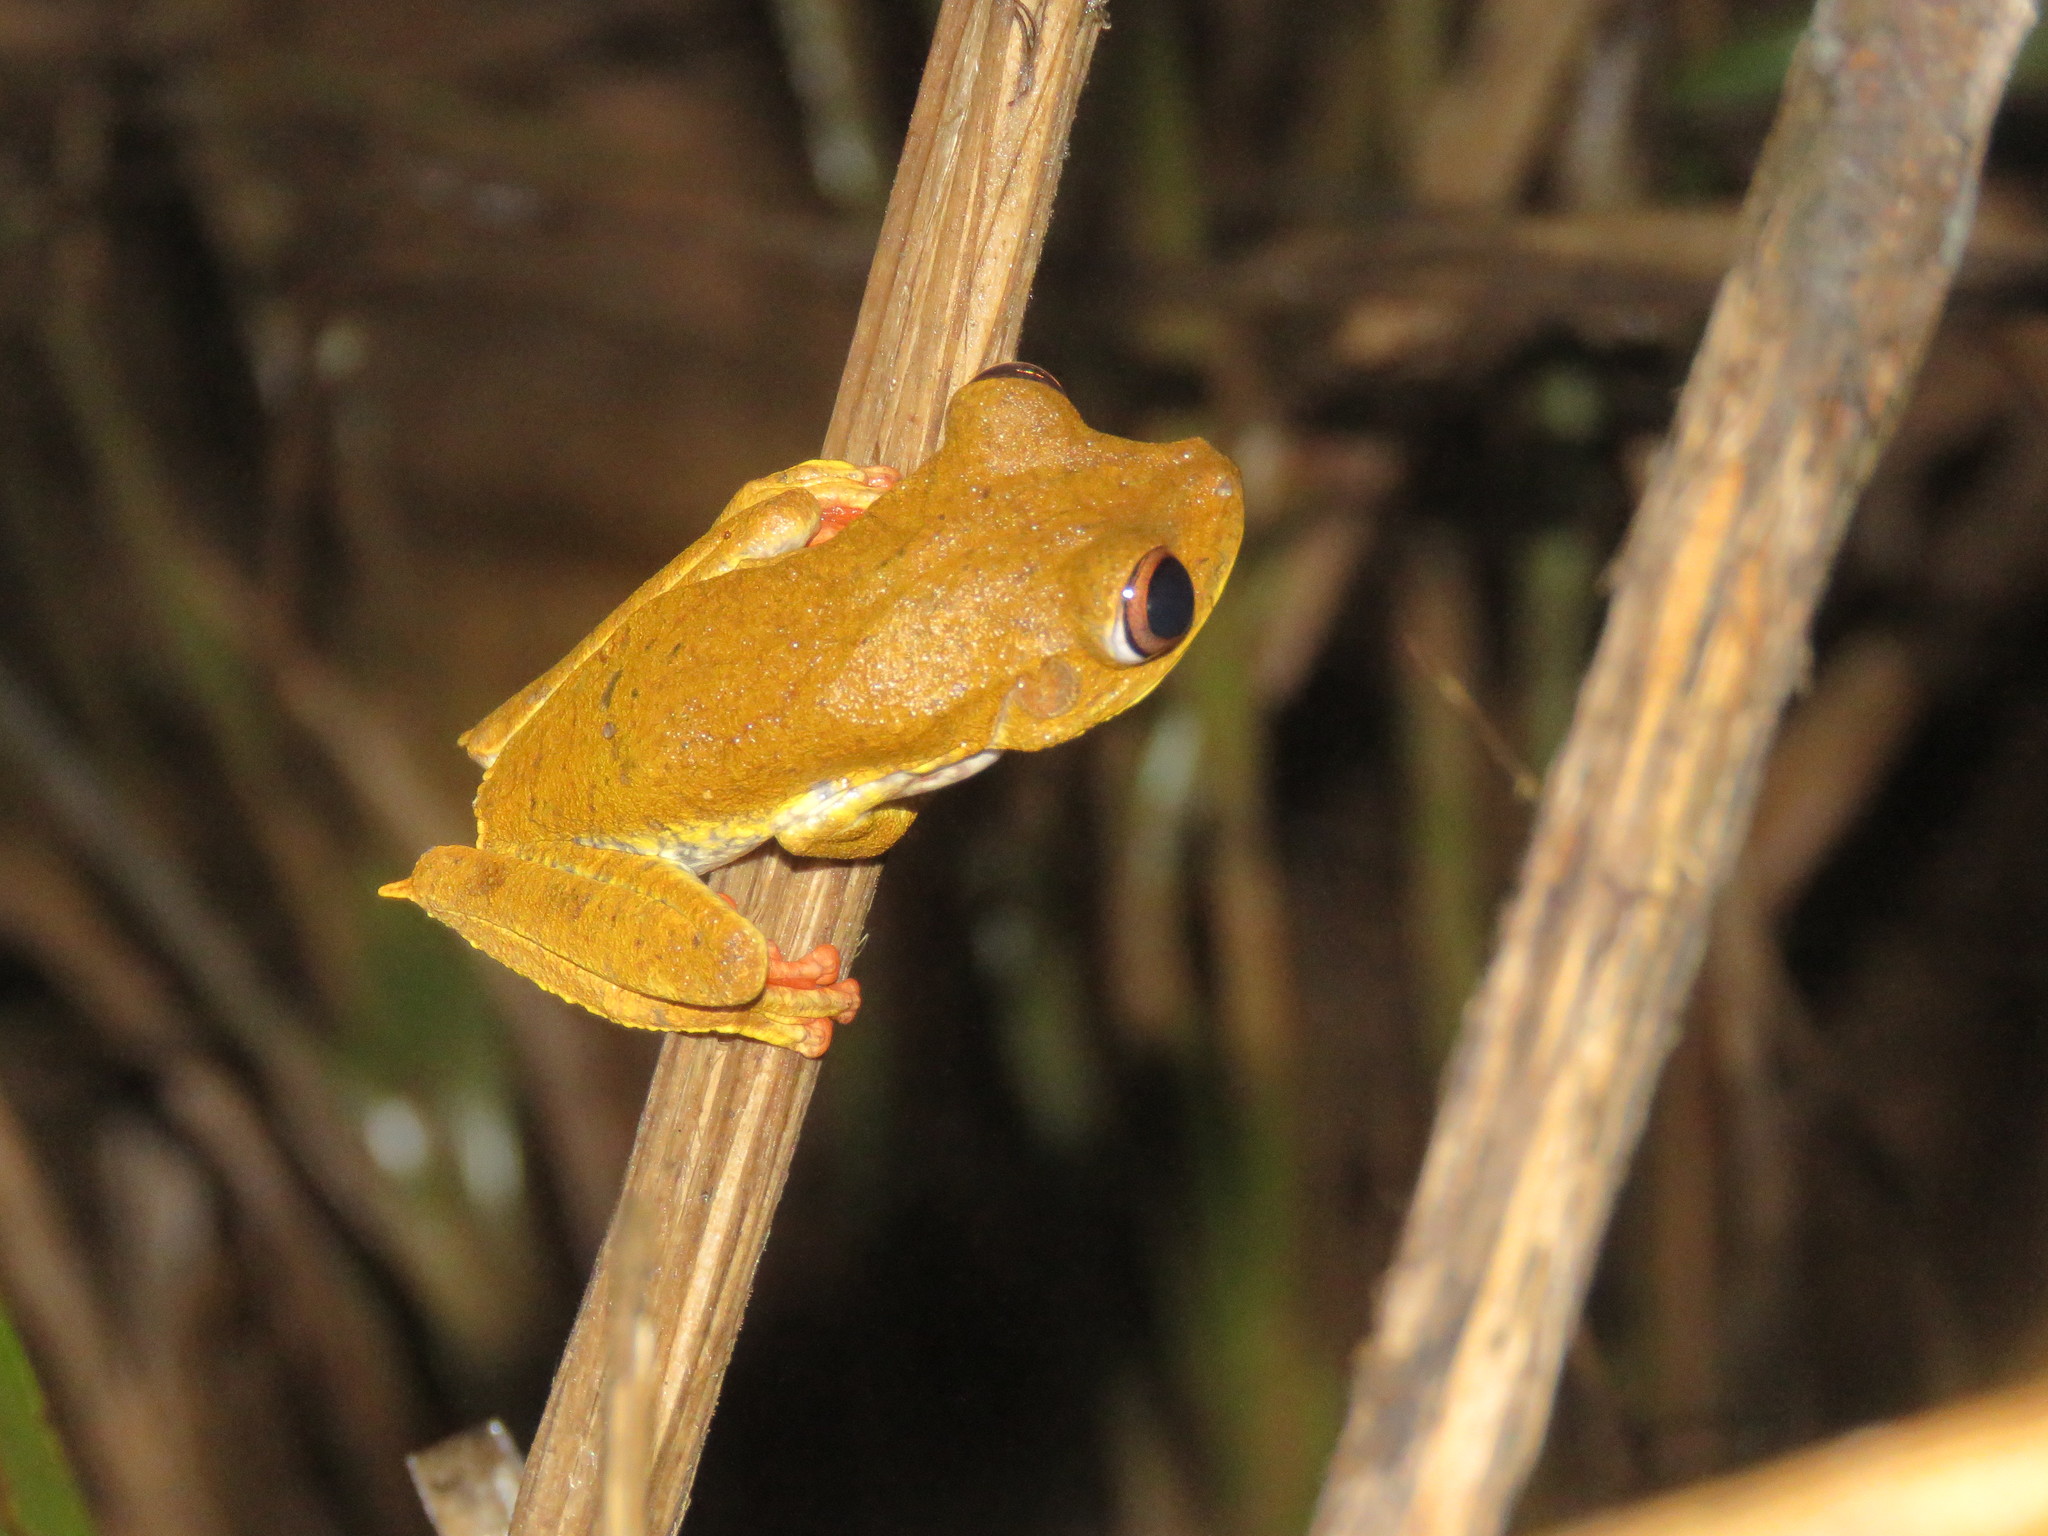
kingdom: Animalia
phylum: Chordata
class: Amphibia
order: Anura
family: Hylidae
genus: Boana
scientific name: Boana geographica
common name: Map treefrog
